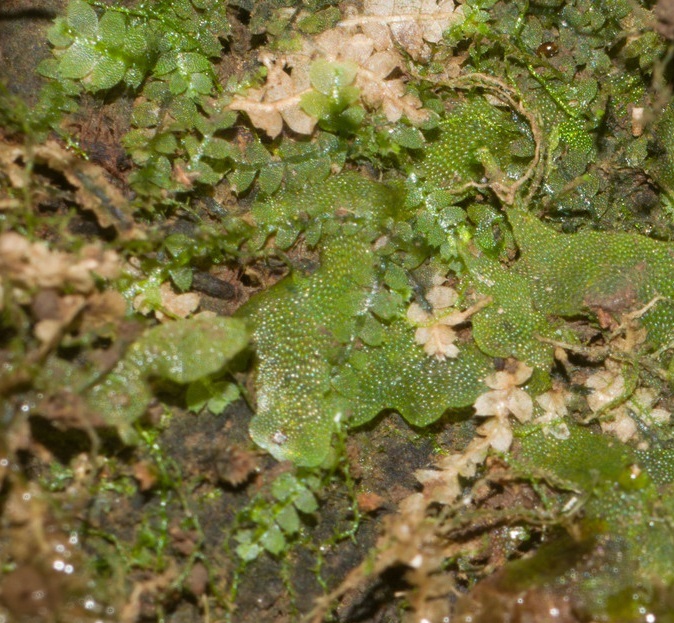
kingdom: Plantae
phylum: Marchantiophyta
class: Jungermanniopsida
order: Jungermanniales
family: Calypogeiaceae
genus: Asperifolia
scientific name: Asperifolia arguta
